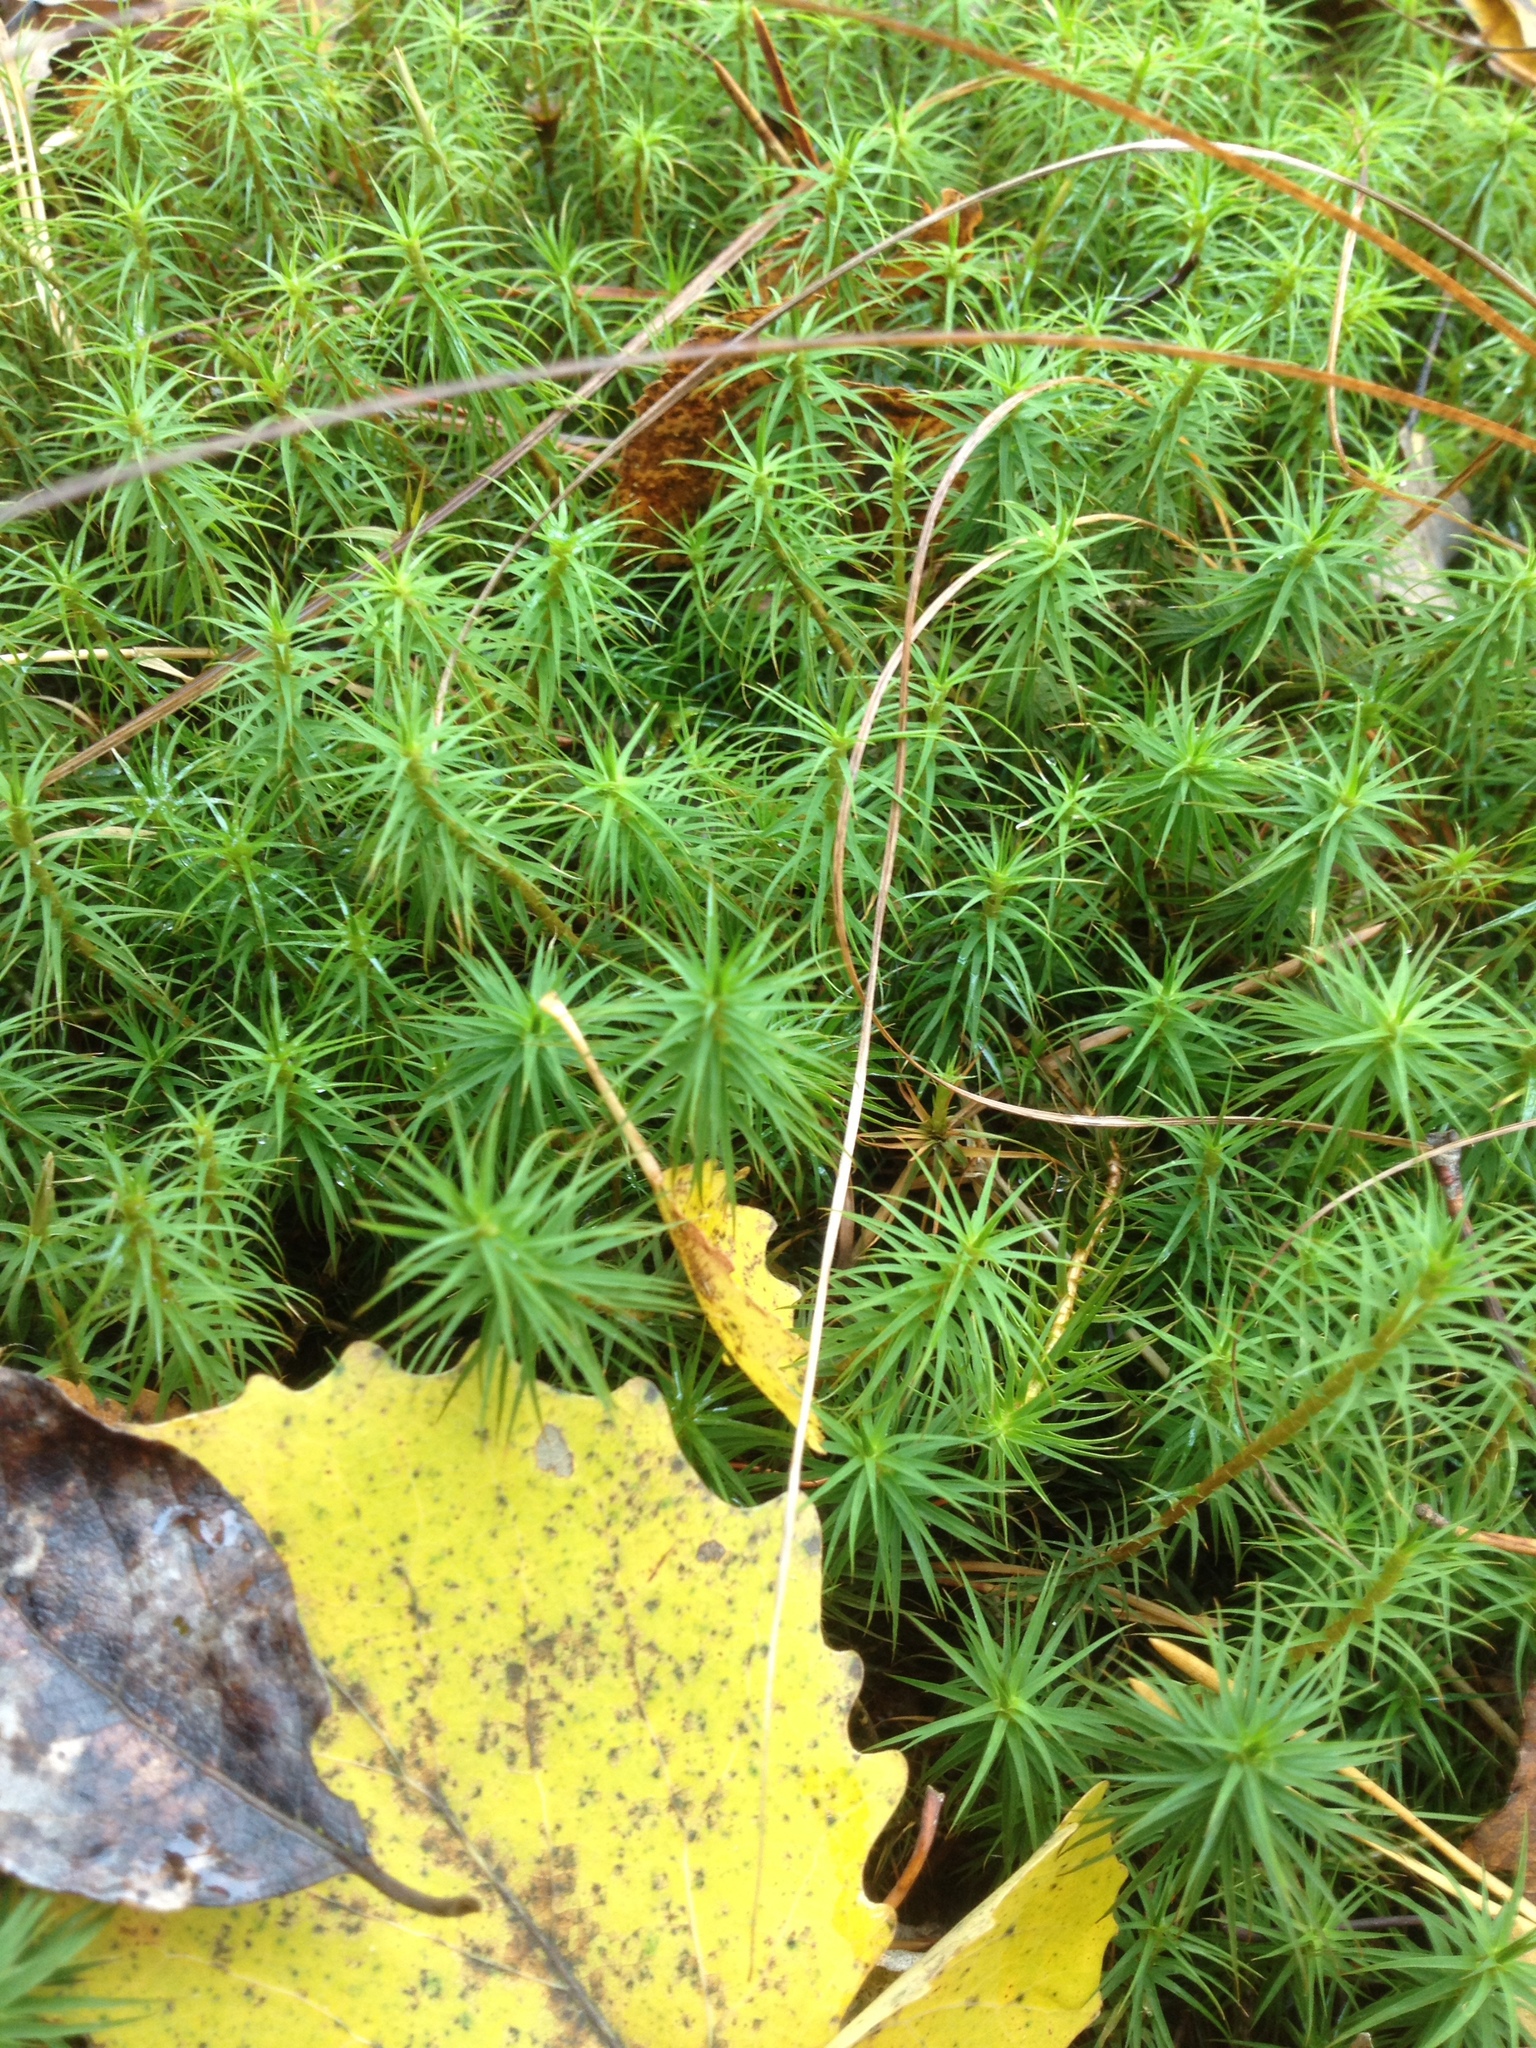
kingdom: Plantae
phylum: Bryophyta
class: Polytrichopsida
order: Polytrichales
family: Polytrichaceae
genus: Polytrichum
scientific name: Polytrichum commune
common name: Common haircap
